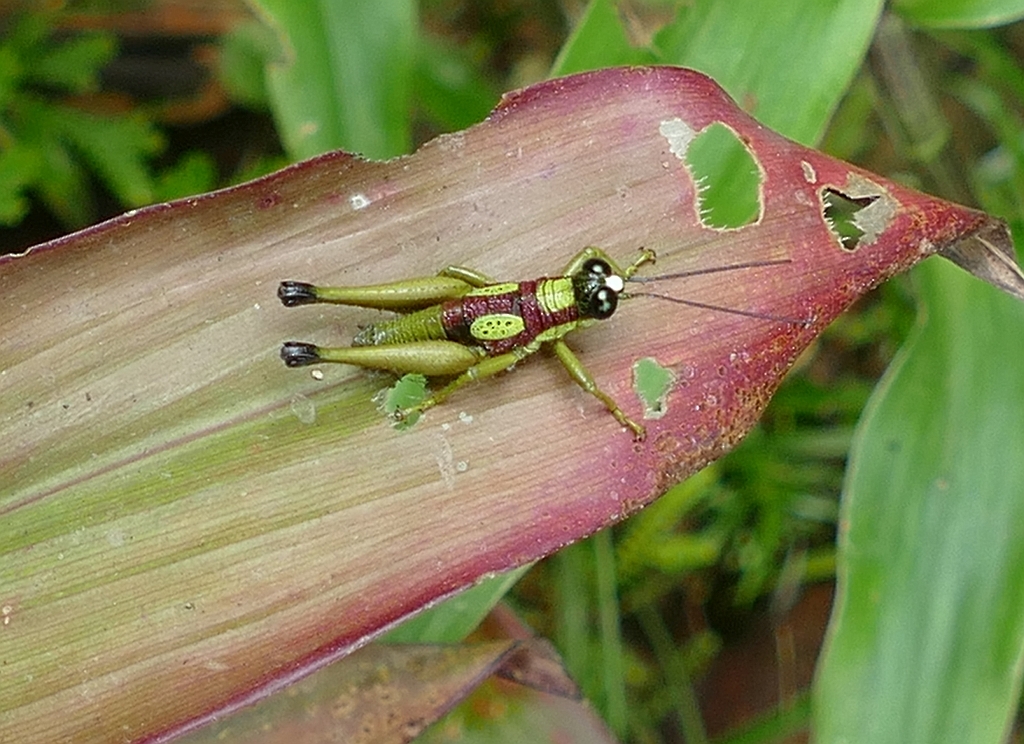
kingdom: Animalia
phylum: Arthropoda
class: Insecta
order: Orthoptera
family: Acrididae
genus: Hippariacris
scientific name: Hippariacris latona
